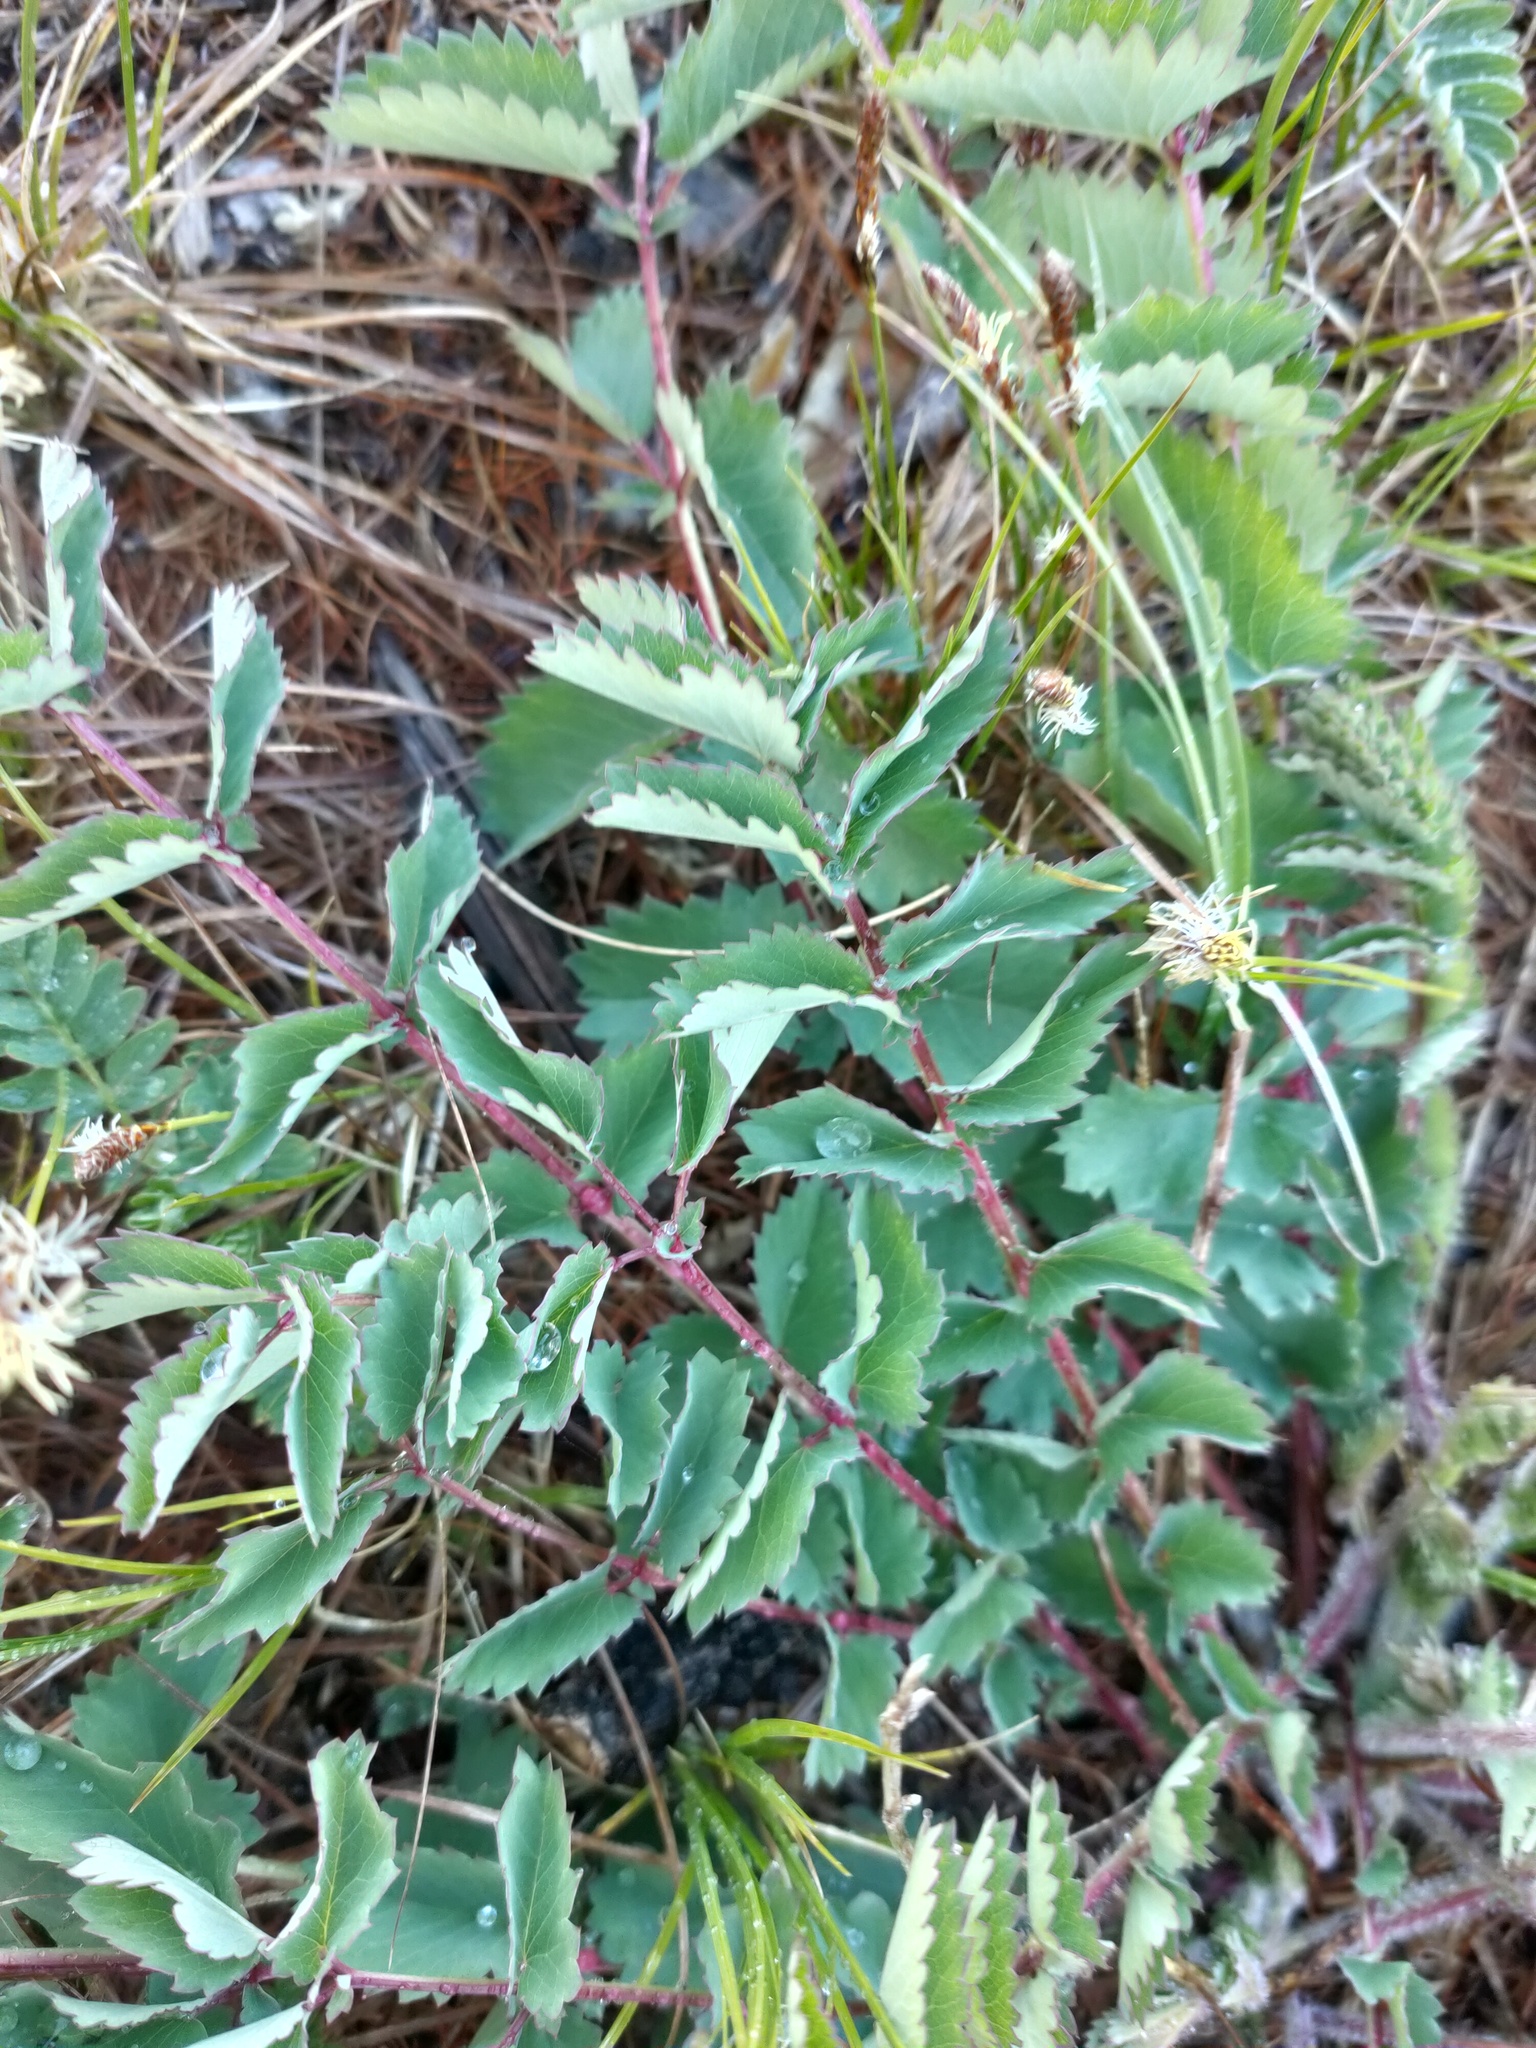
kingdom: Plantae
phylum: Tracheophyta
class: Magnoliopsida
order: Rosales
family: Rosaceae
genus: Sanguisorba
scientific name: Sanguisorba officinalis
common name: Great burnet
